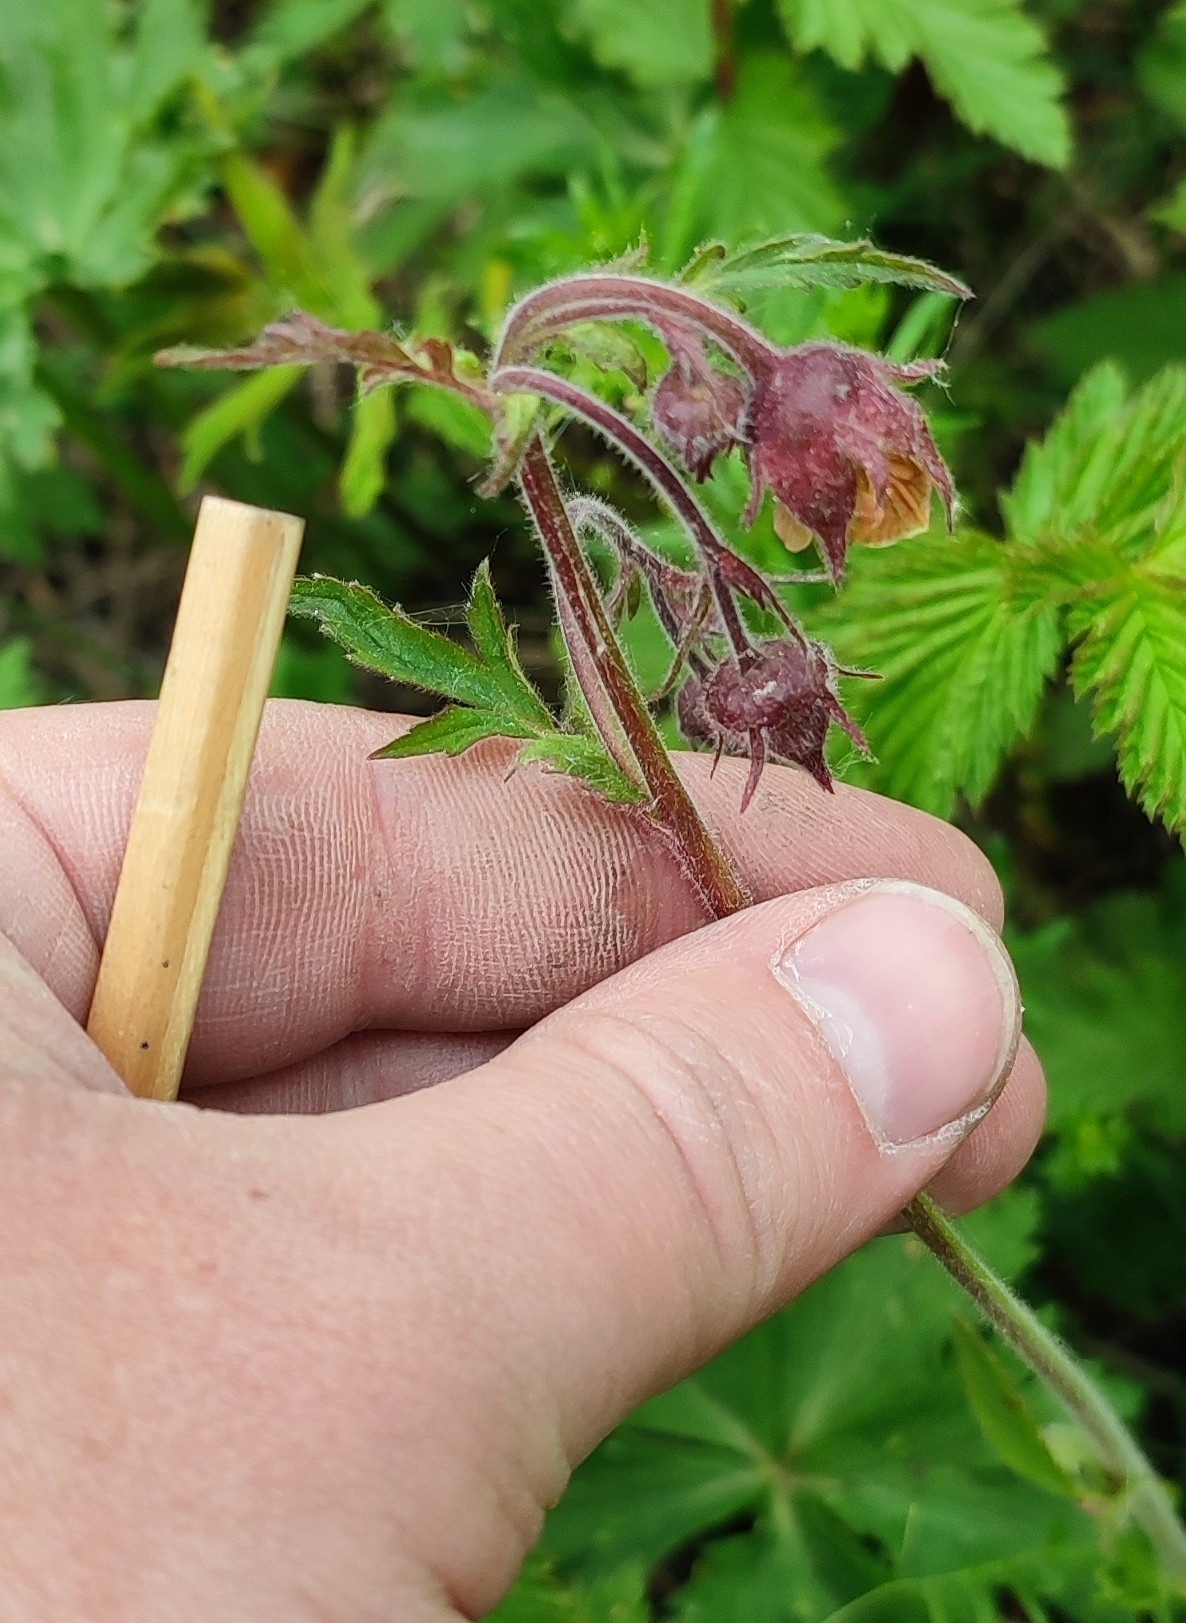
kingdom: Plantae
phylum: Tracheophyta
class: Magnoliopsida
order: Rosales
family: Rosaceae
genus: Geum
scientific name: Geum rivale
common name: Water avens
